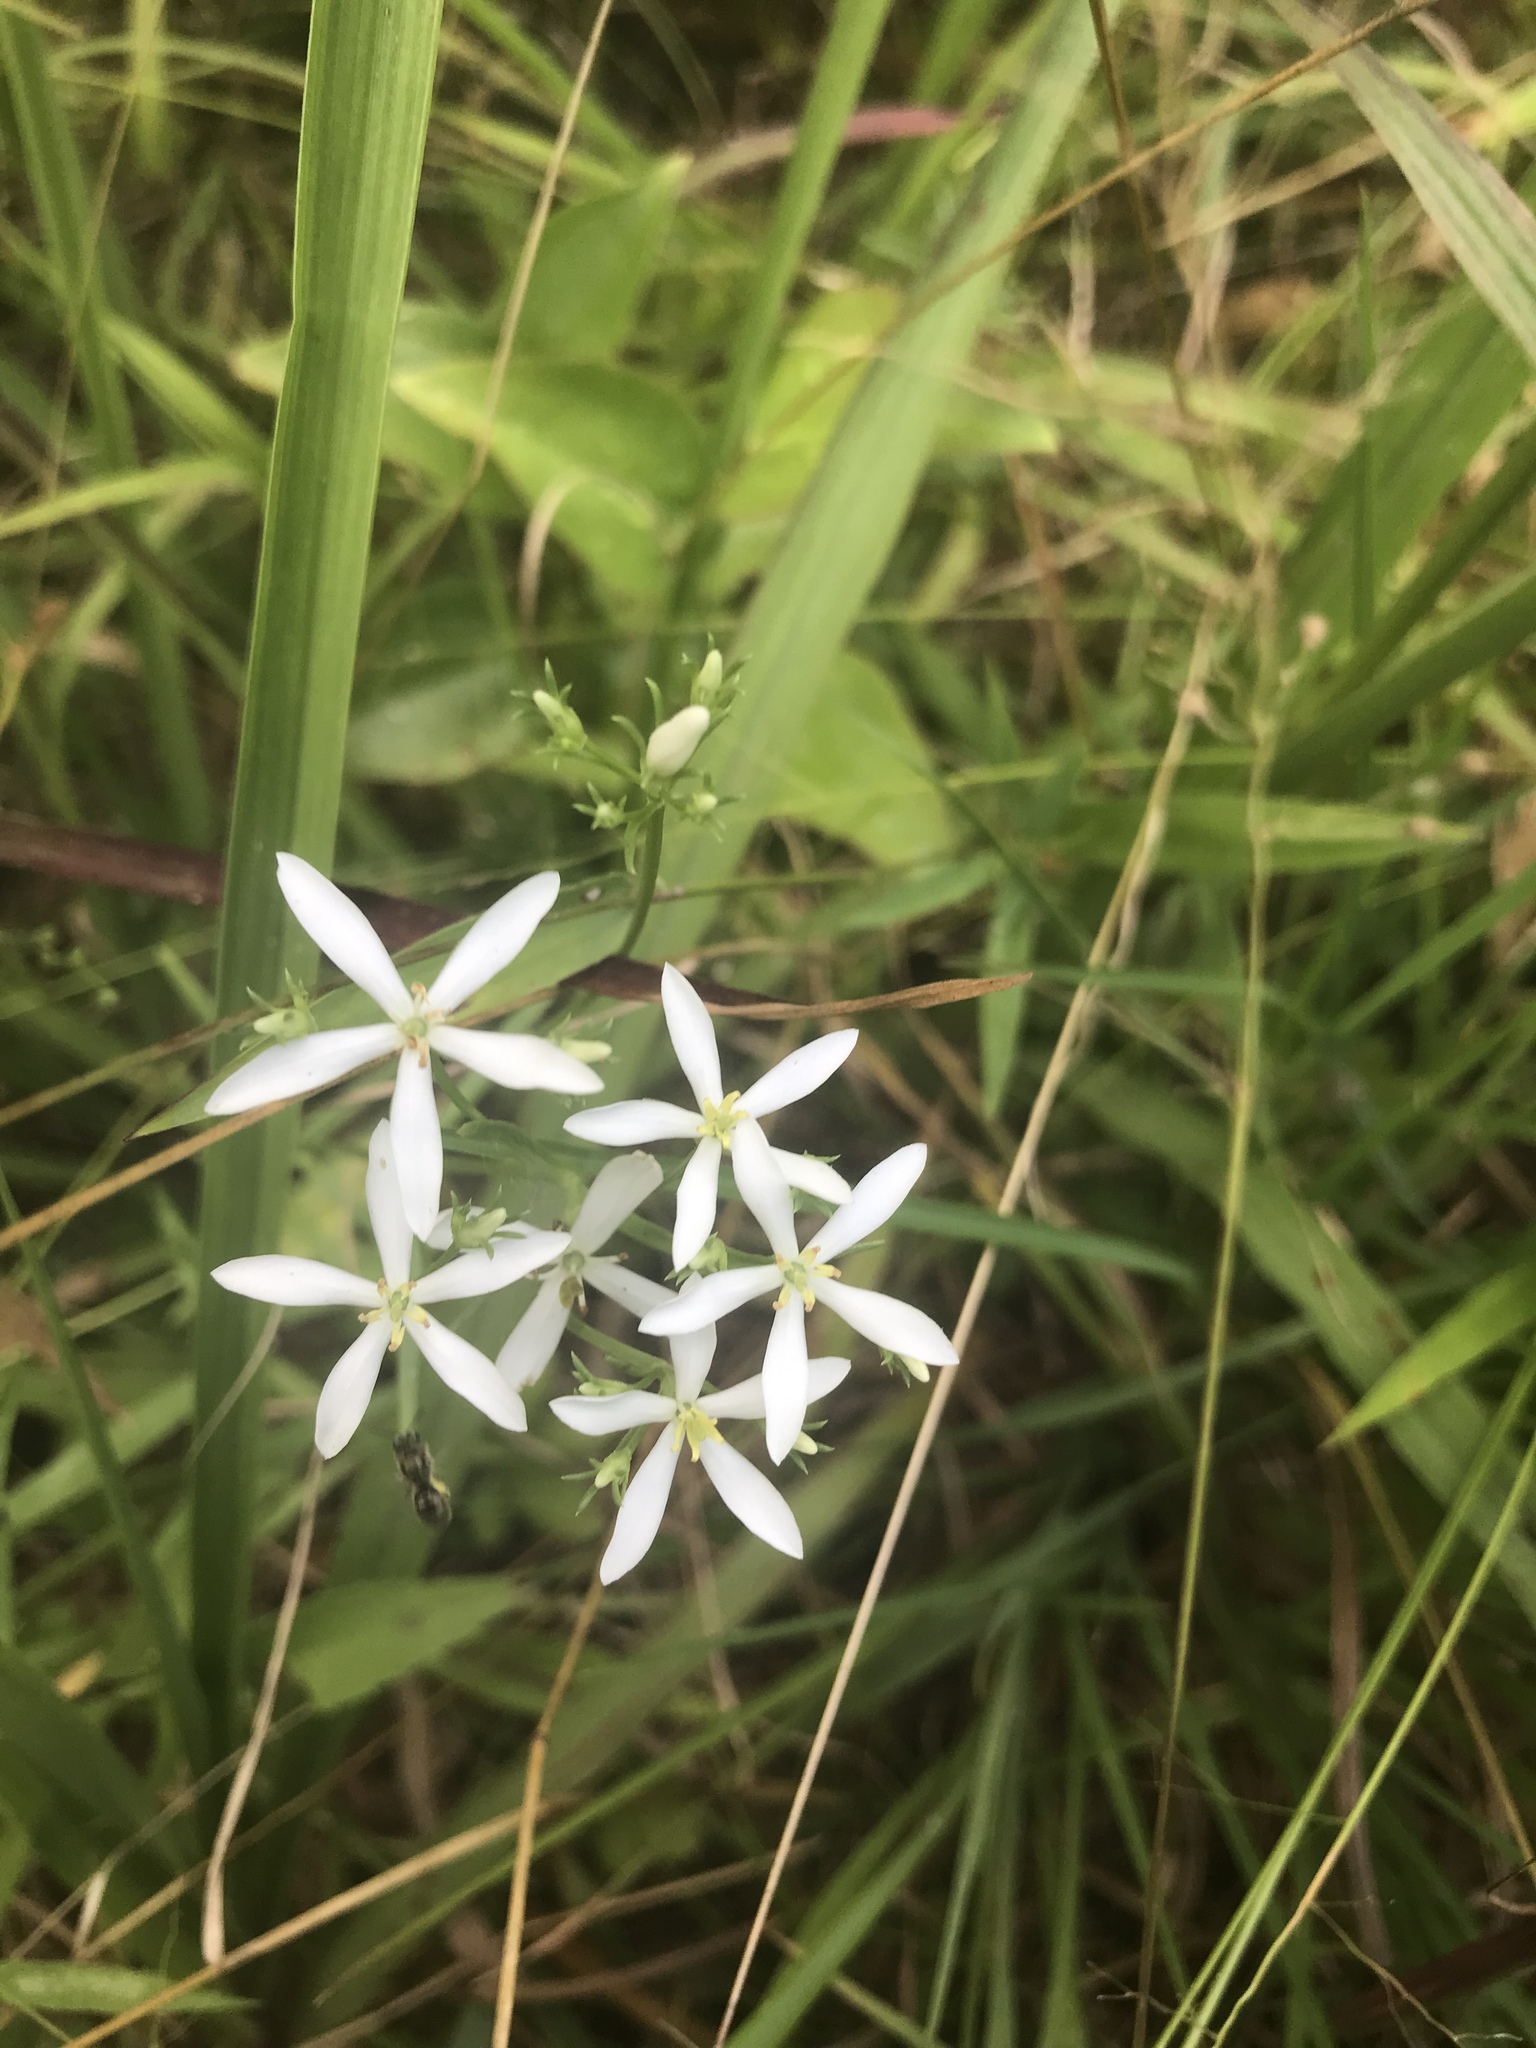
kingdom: Plantae
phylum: Tracheophyta
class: Magnoliopsida
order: Gentianales
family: Gentianaceae
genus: Sabatia
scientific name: Sabatia quadrangula
